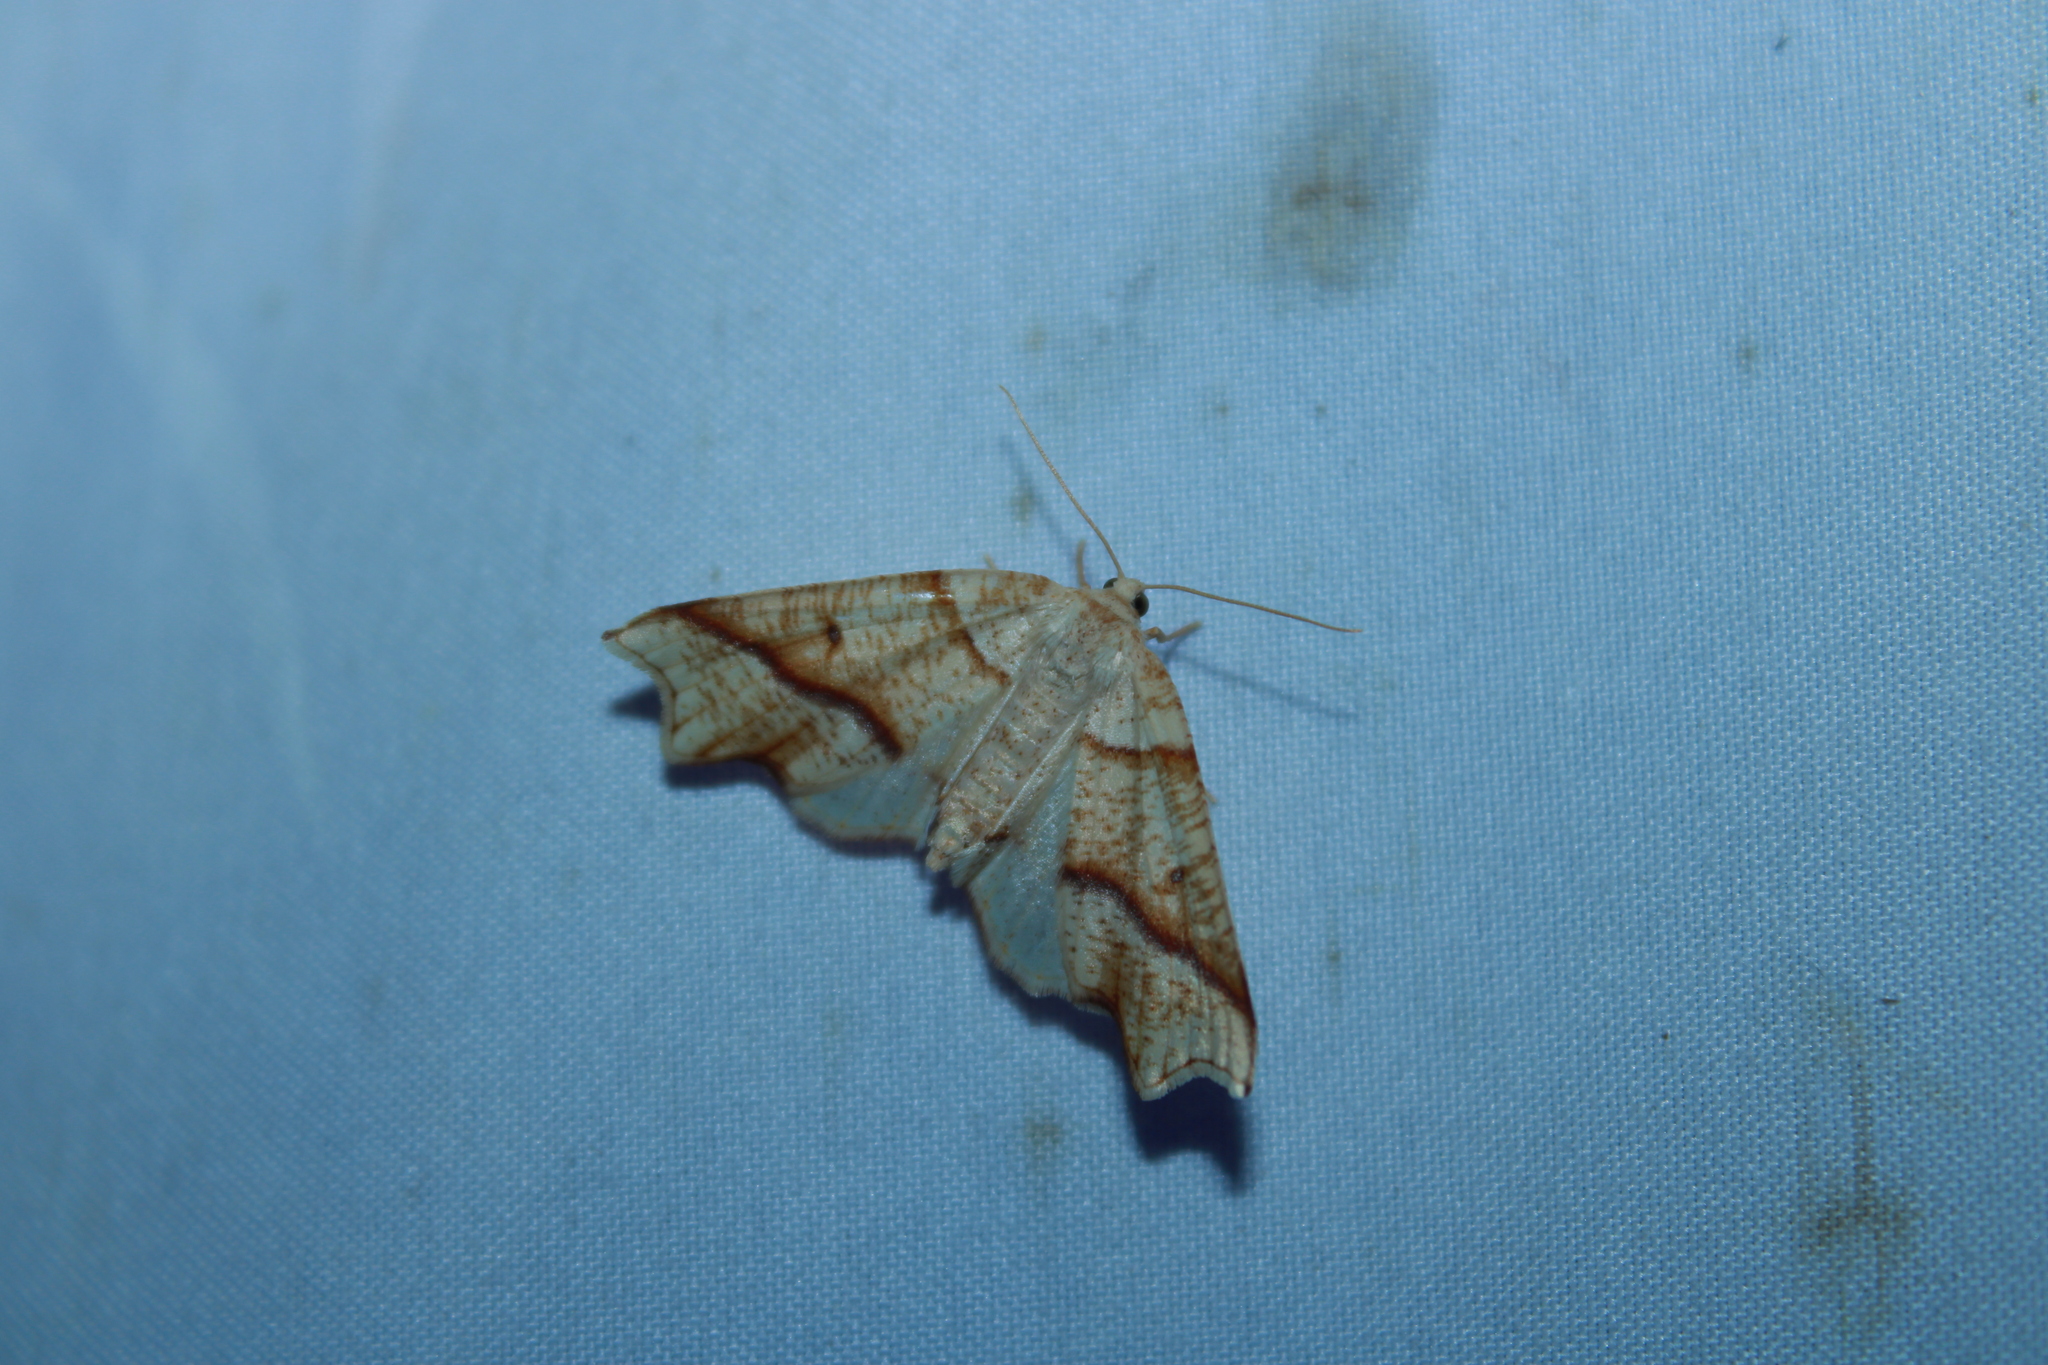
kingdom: Animalia
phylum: Arthropoda
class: Insecta
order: Lepidoptera
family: Geometridae
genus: Plagodis
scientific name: Plagodis alcoolaria
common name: Hollow-spotted plagodis
